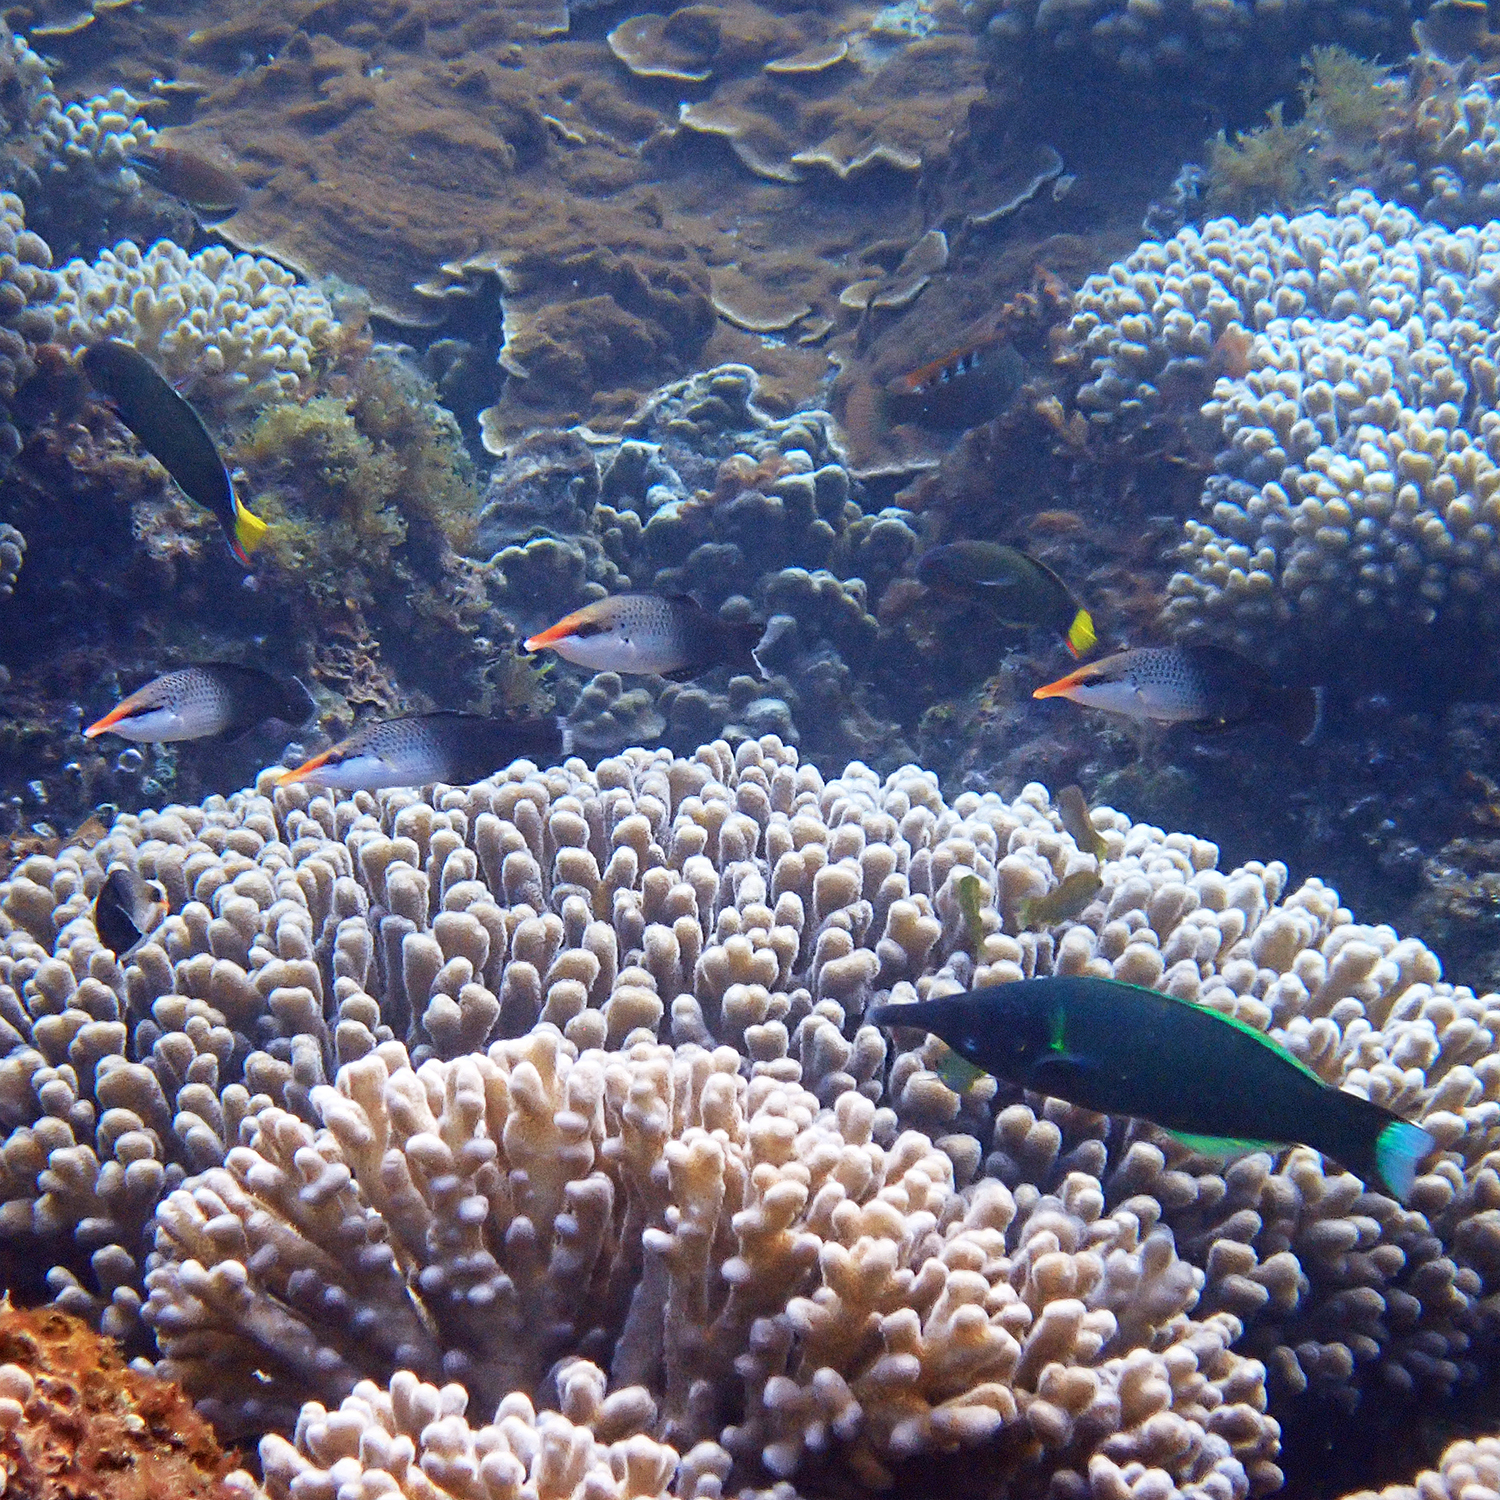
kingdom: Animalia
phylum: Chordata
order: Perciformes
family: Labridae
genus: Gomphosus
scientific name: Gomphosus varius
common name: Bird wrasse
